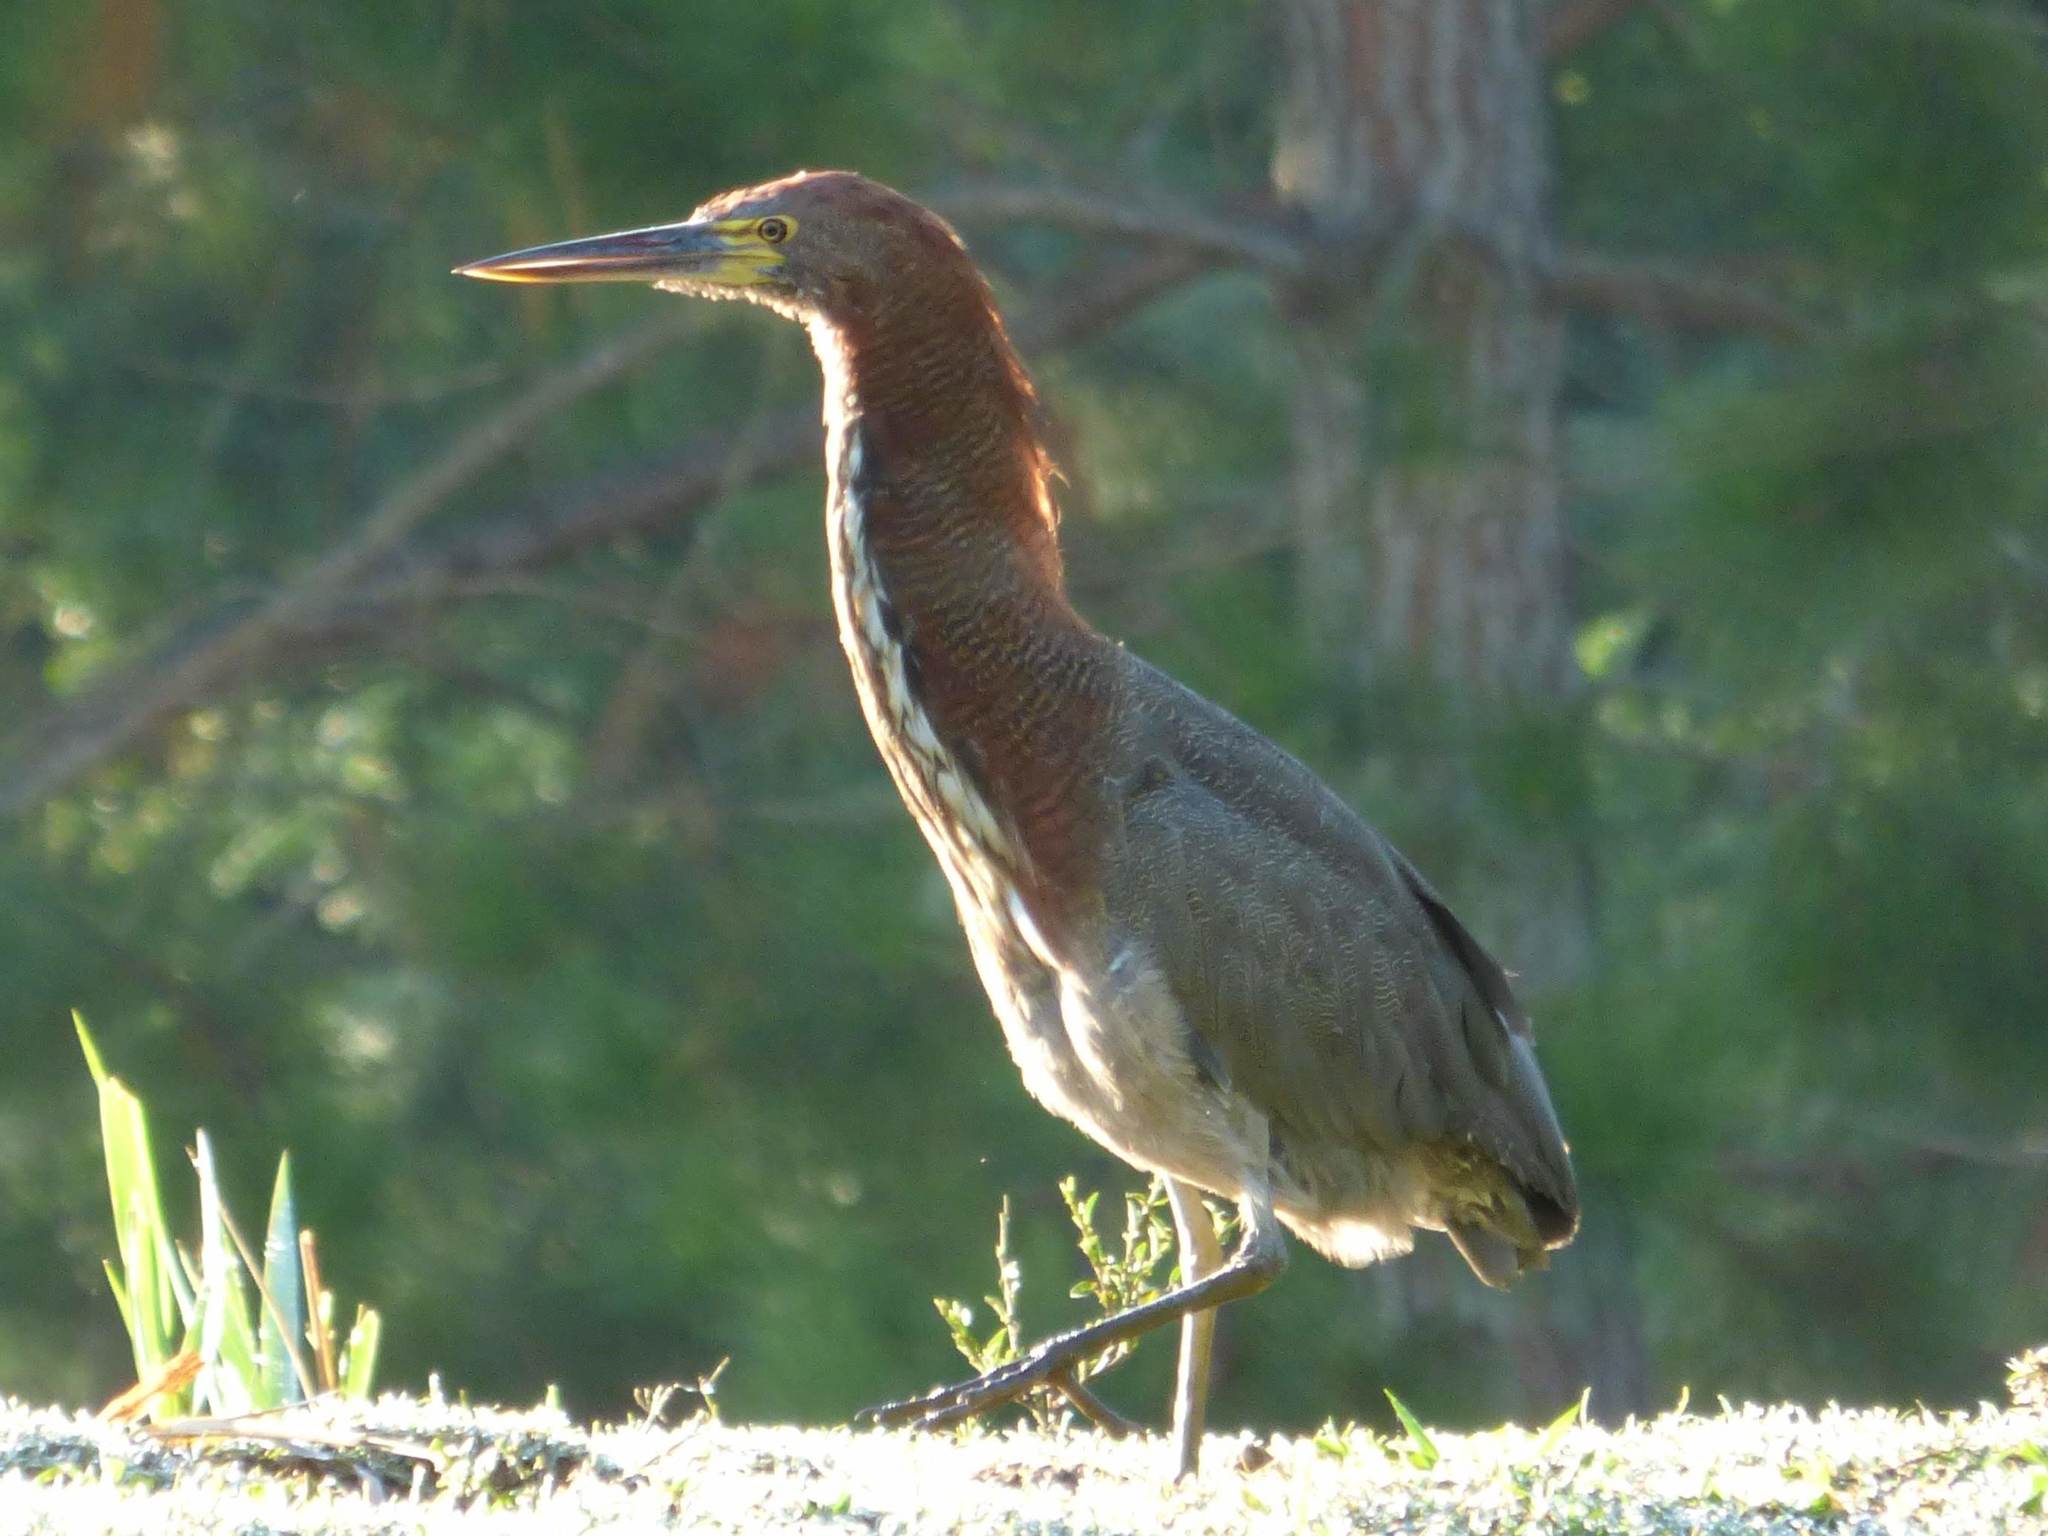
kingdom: Animalia
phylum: Chordata
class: Aves
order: Pelecaniformes
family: Ardeidae
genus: Tigrisoma
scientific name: Tigrisoma lineatum
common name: Rufescent tiger-heron
